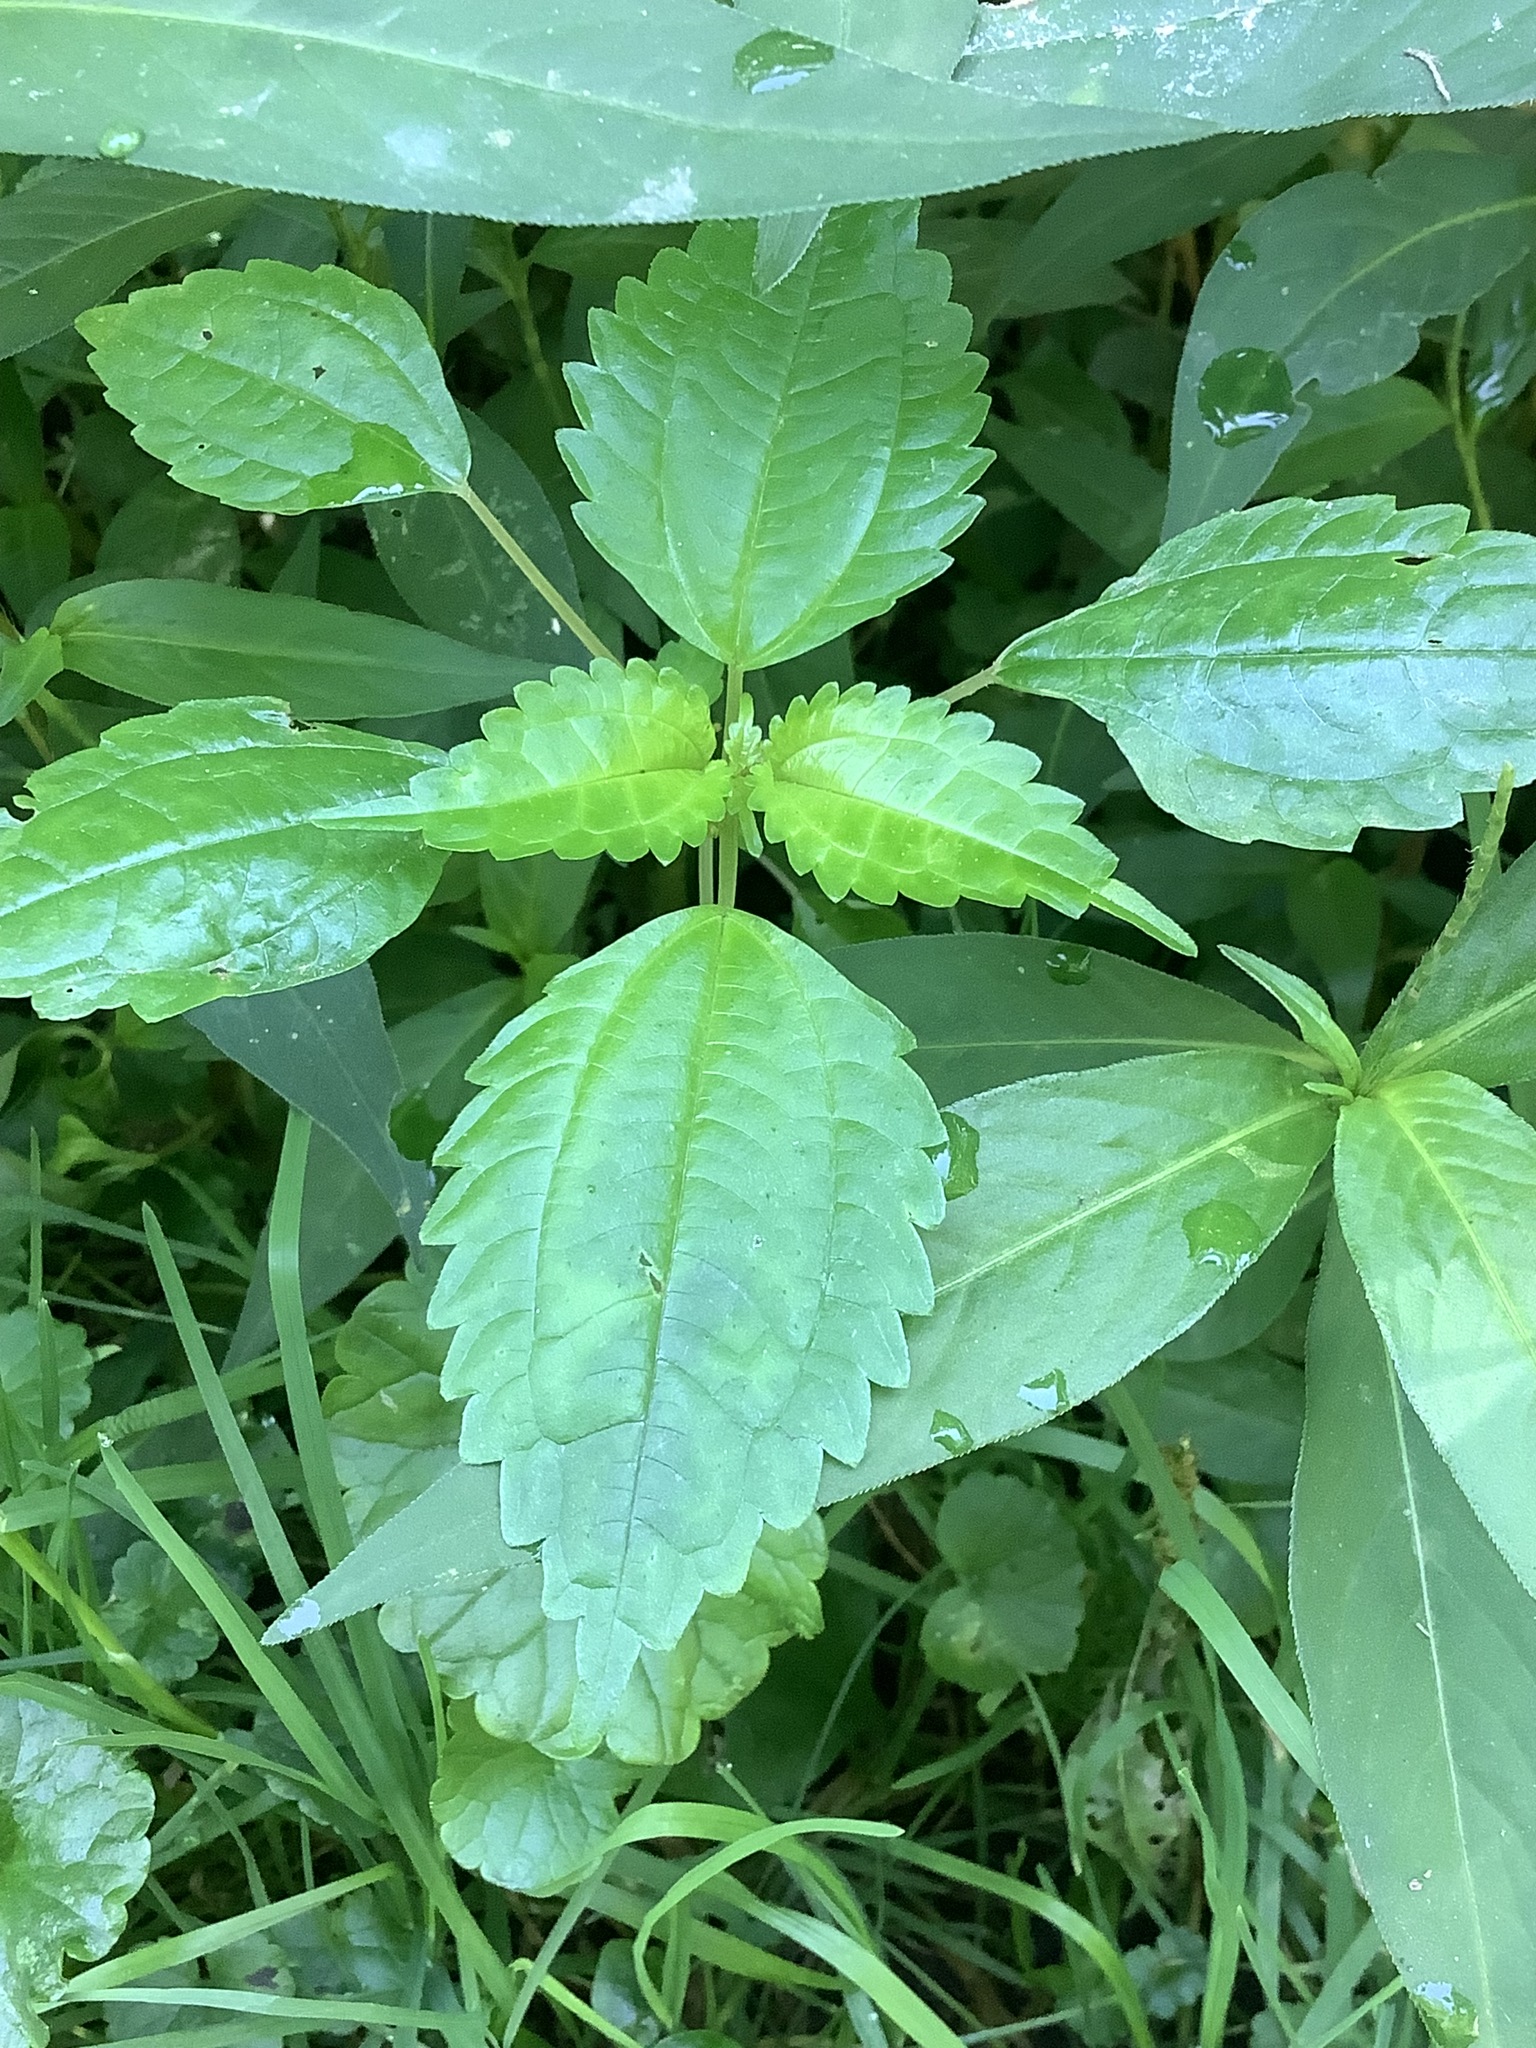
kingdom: Plantae
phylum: Tracheophyta
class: Magnoliopsida
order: Rosales
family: Urticaceae
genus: Pilea
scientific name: Pilea pumila
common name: Clearweed
